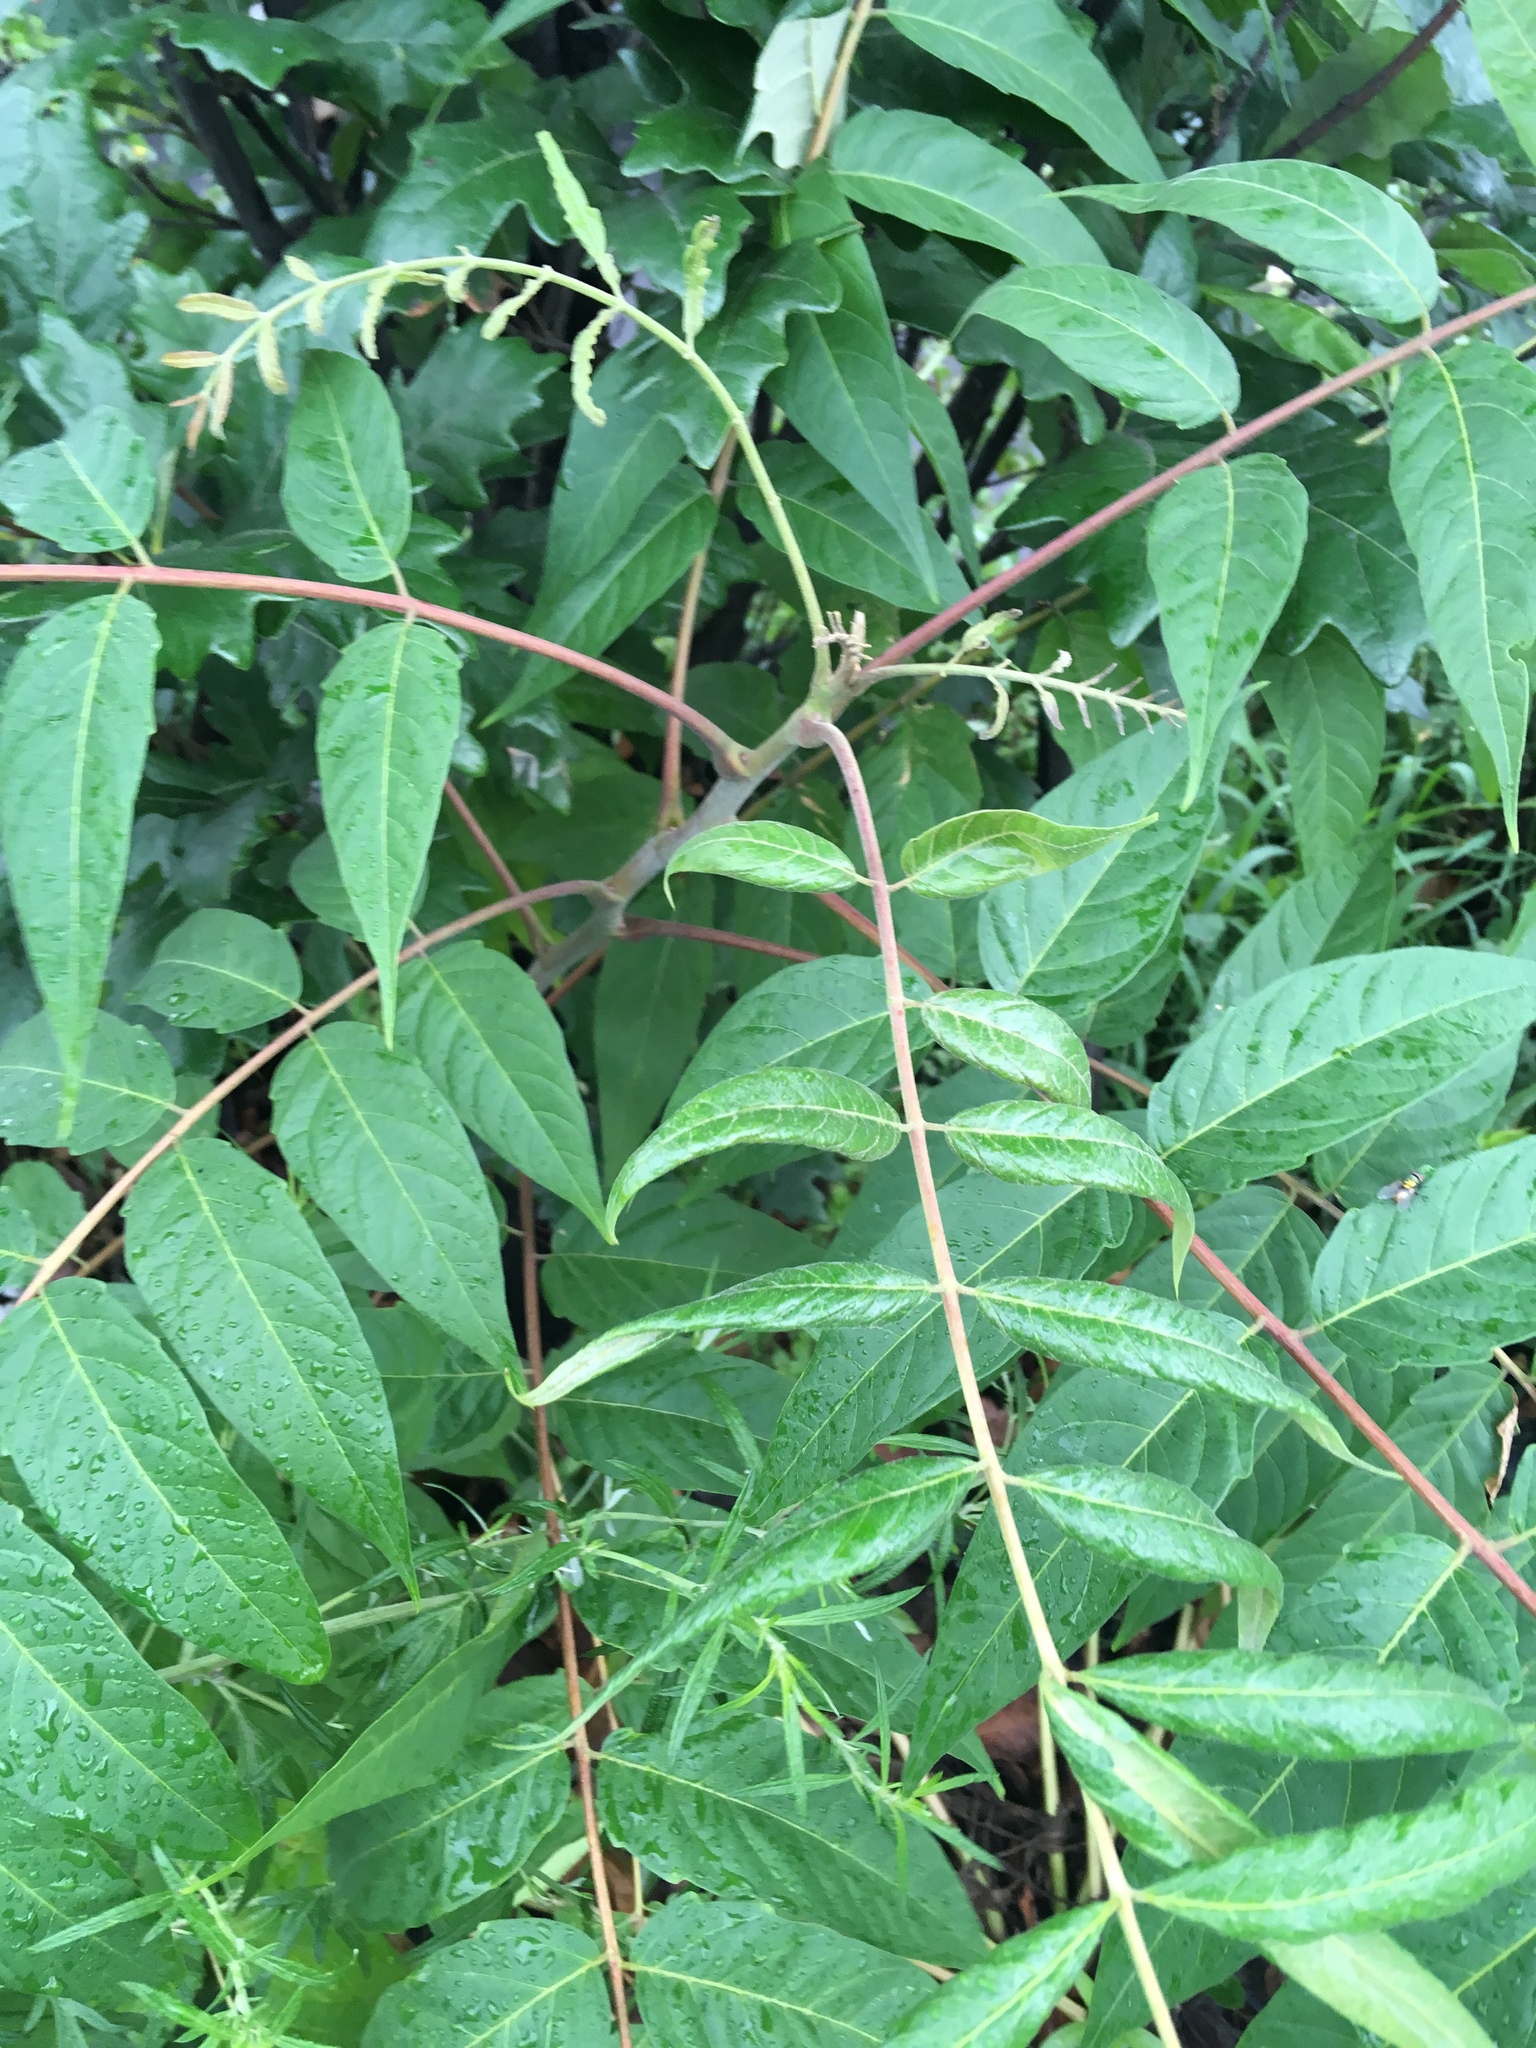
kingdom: Plantae
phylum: Tracheophyta
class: Magnoliopsida
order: Sapindales
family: Simaroubaceae
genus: Ailanthus
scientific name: Ailanthus altissima
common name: Tree-of-heaven
